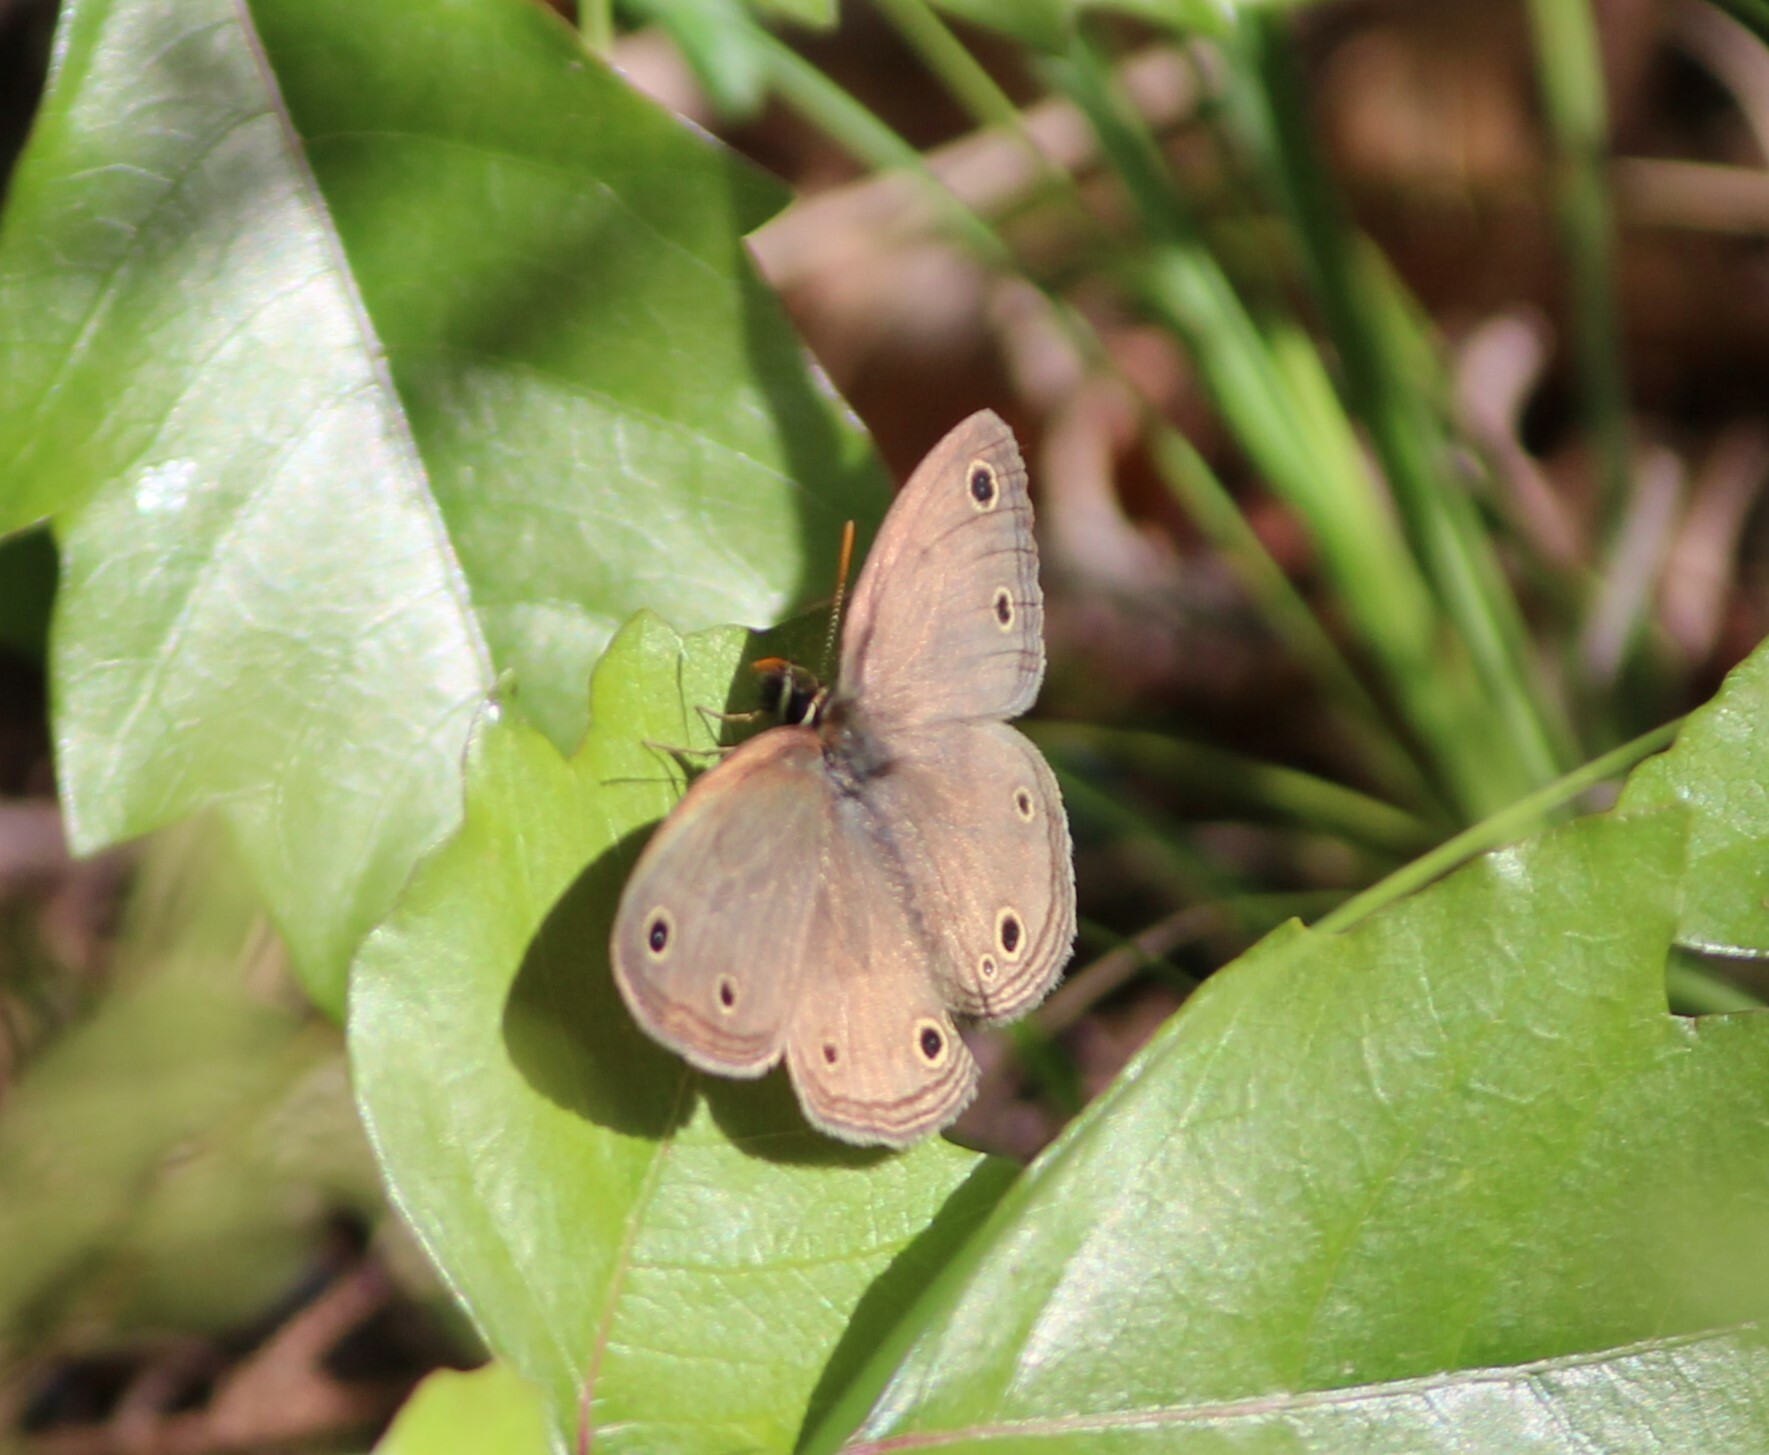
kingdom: Animalia
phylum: Arthropoda
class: Insecta
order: Lepidoptera
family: Nymphalidae
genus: Euptychia
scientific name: Euptychia cymela
